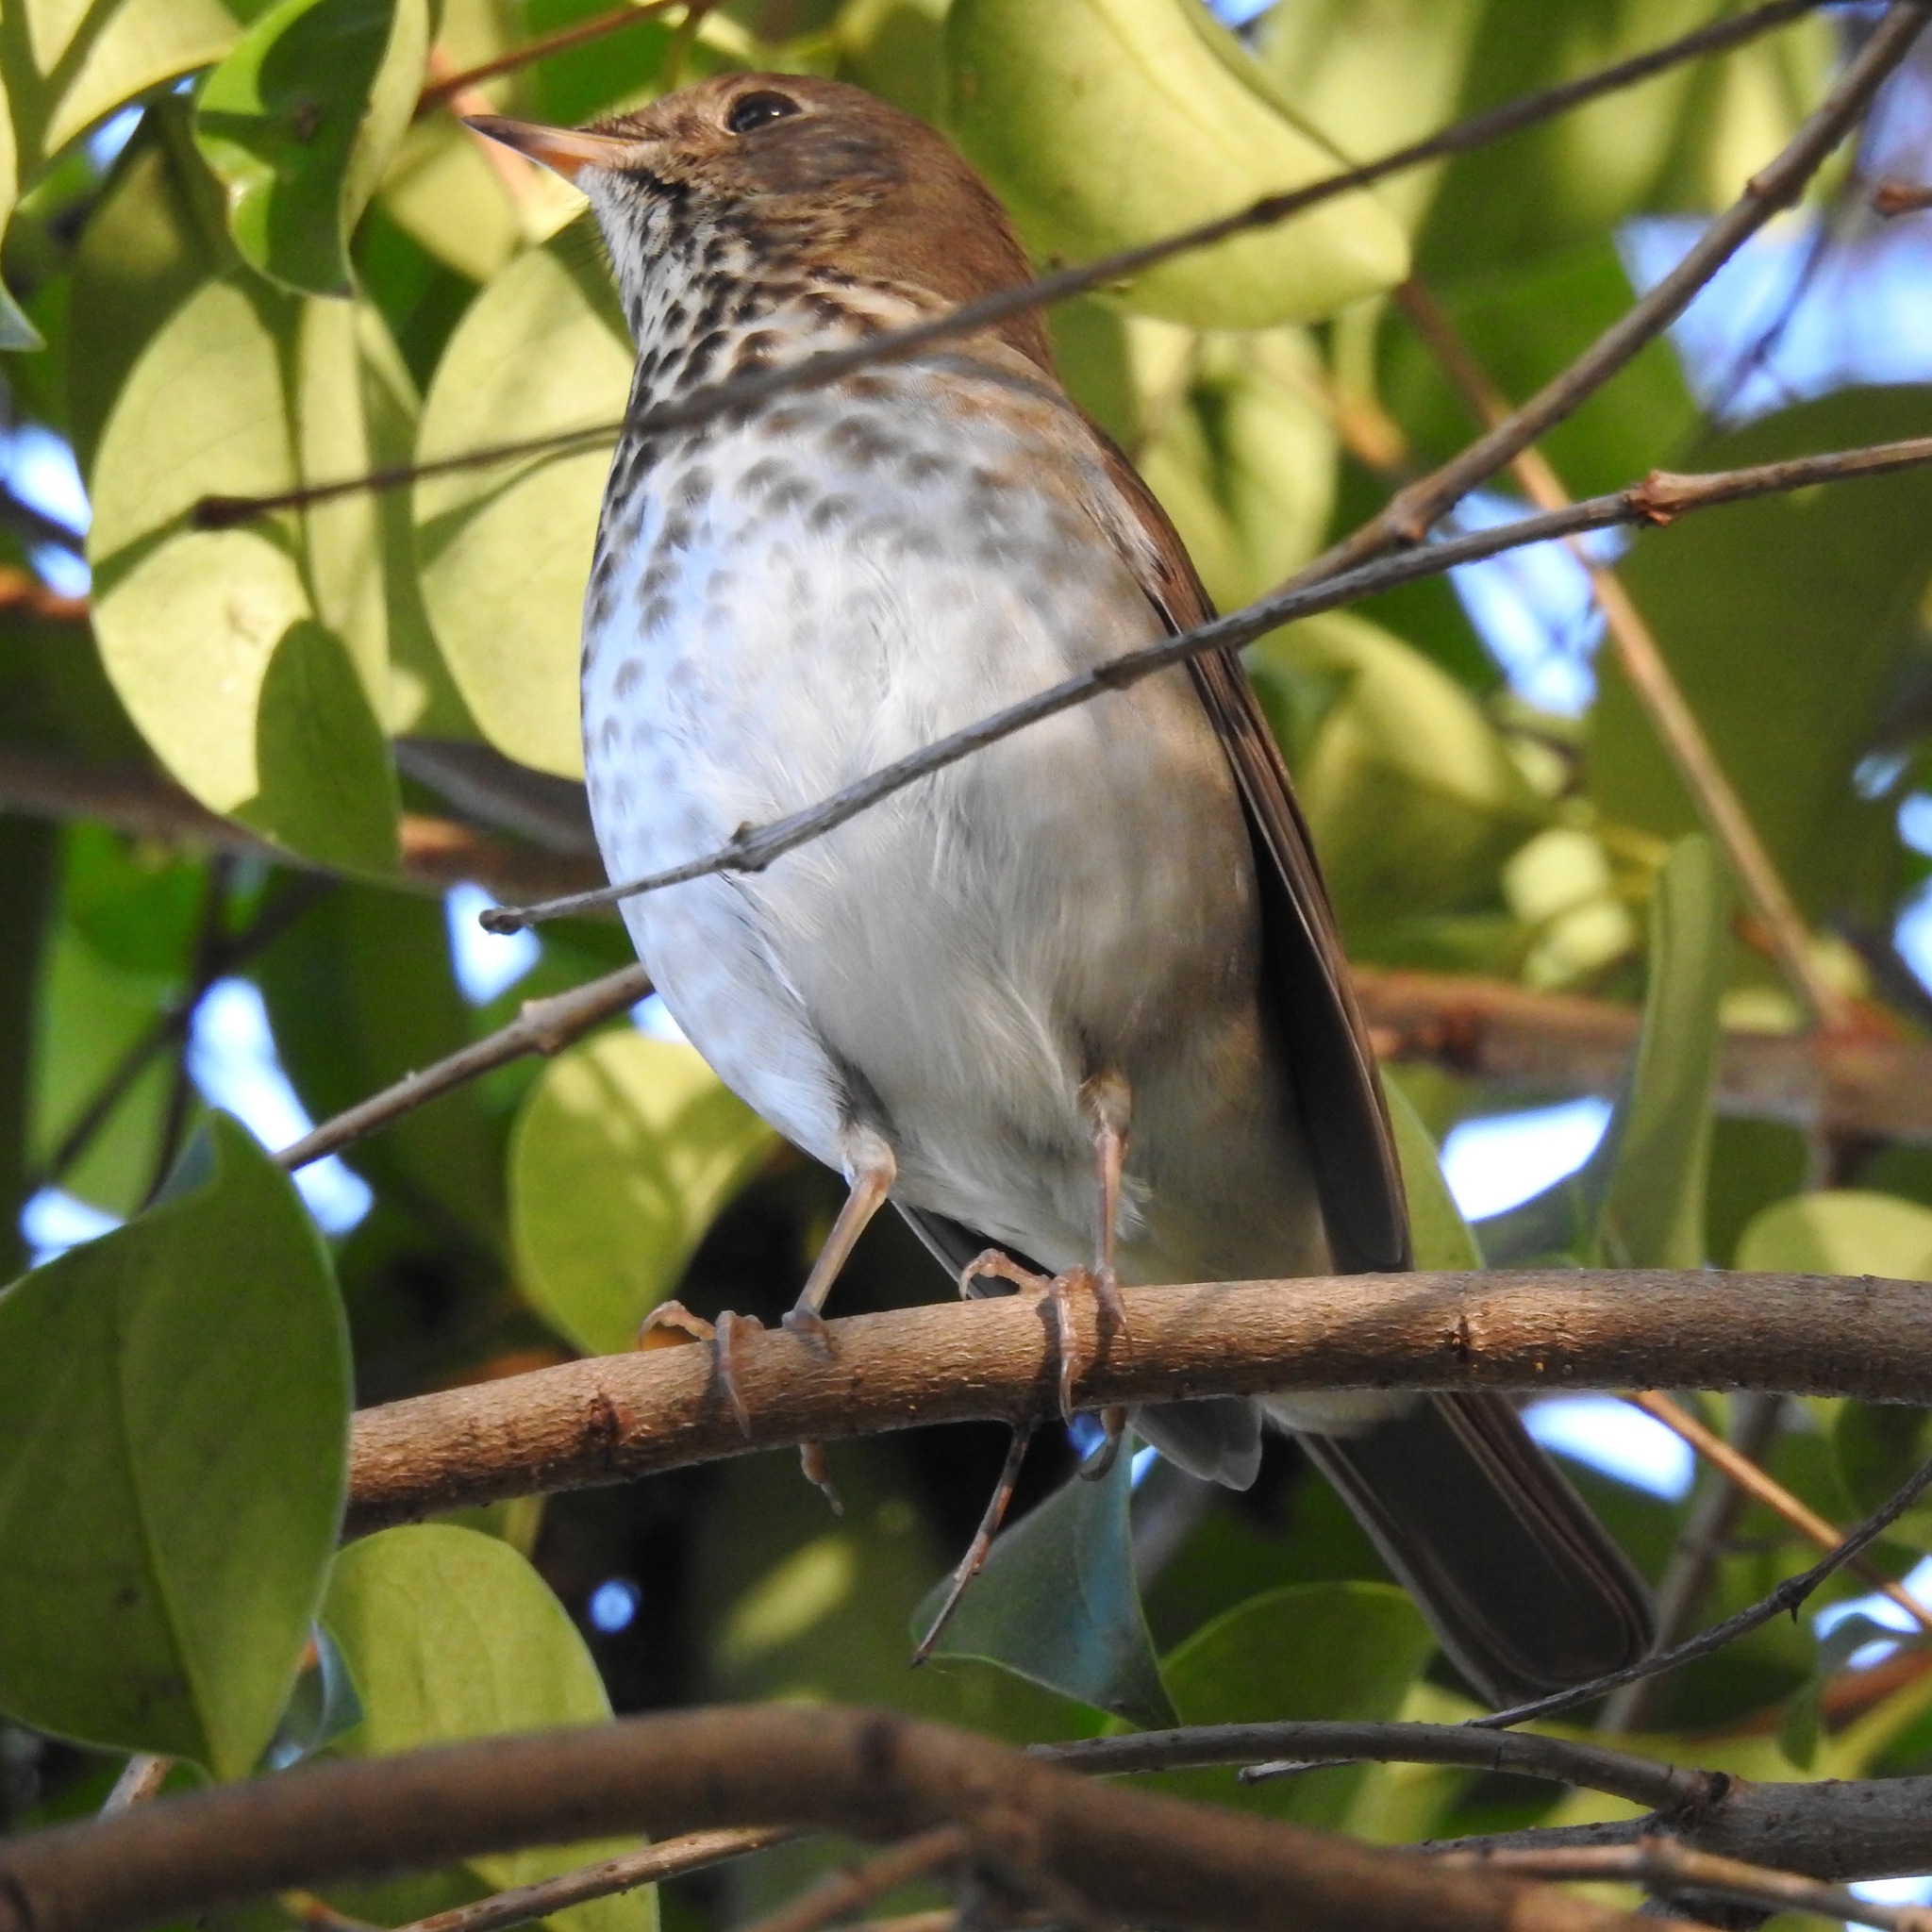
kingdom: Animalia
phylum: Chordata
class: Aves
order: Passeriformes
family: Turdidae
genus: Catharus
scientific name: Catharus guttatus
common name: Hermit thrush
